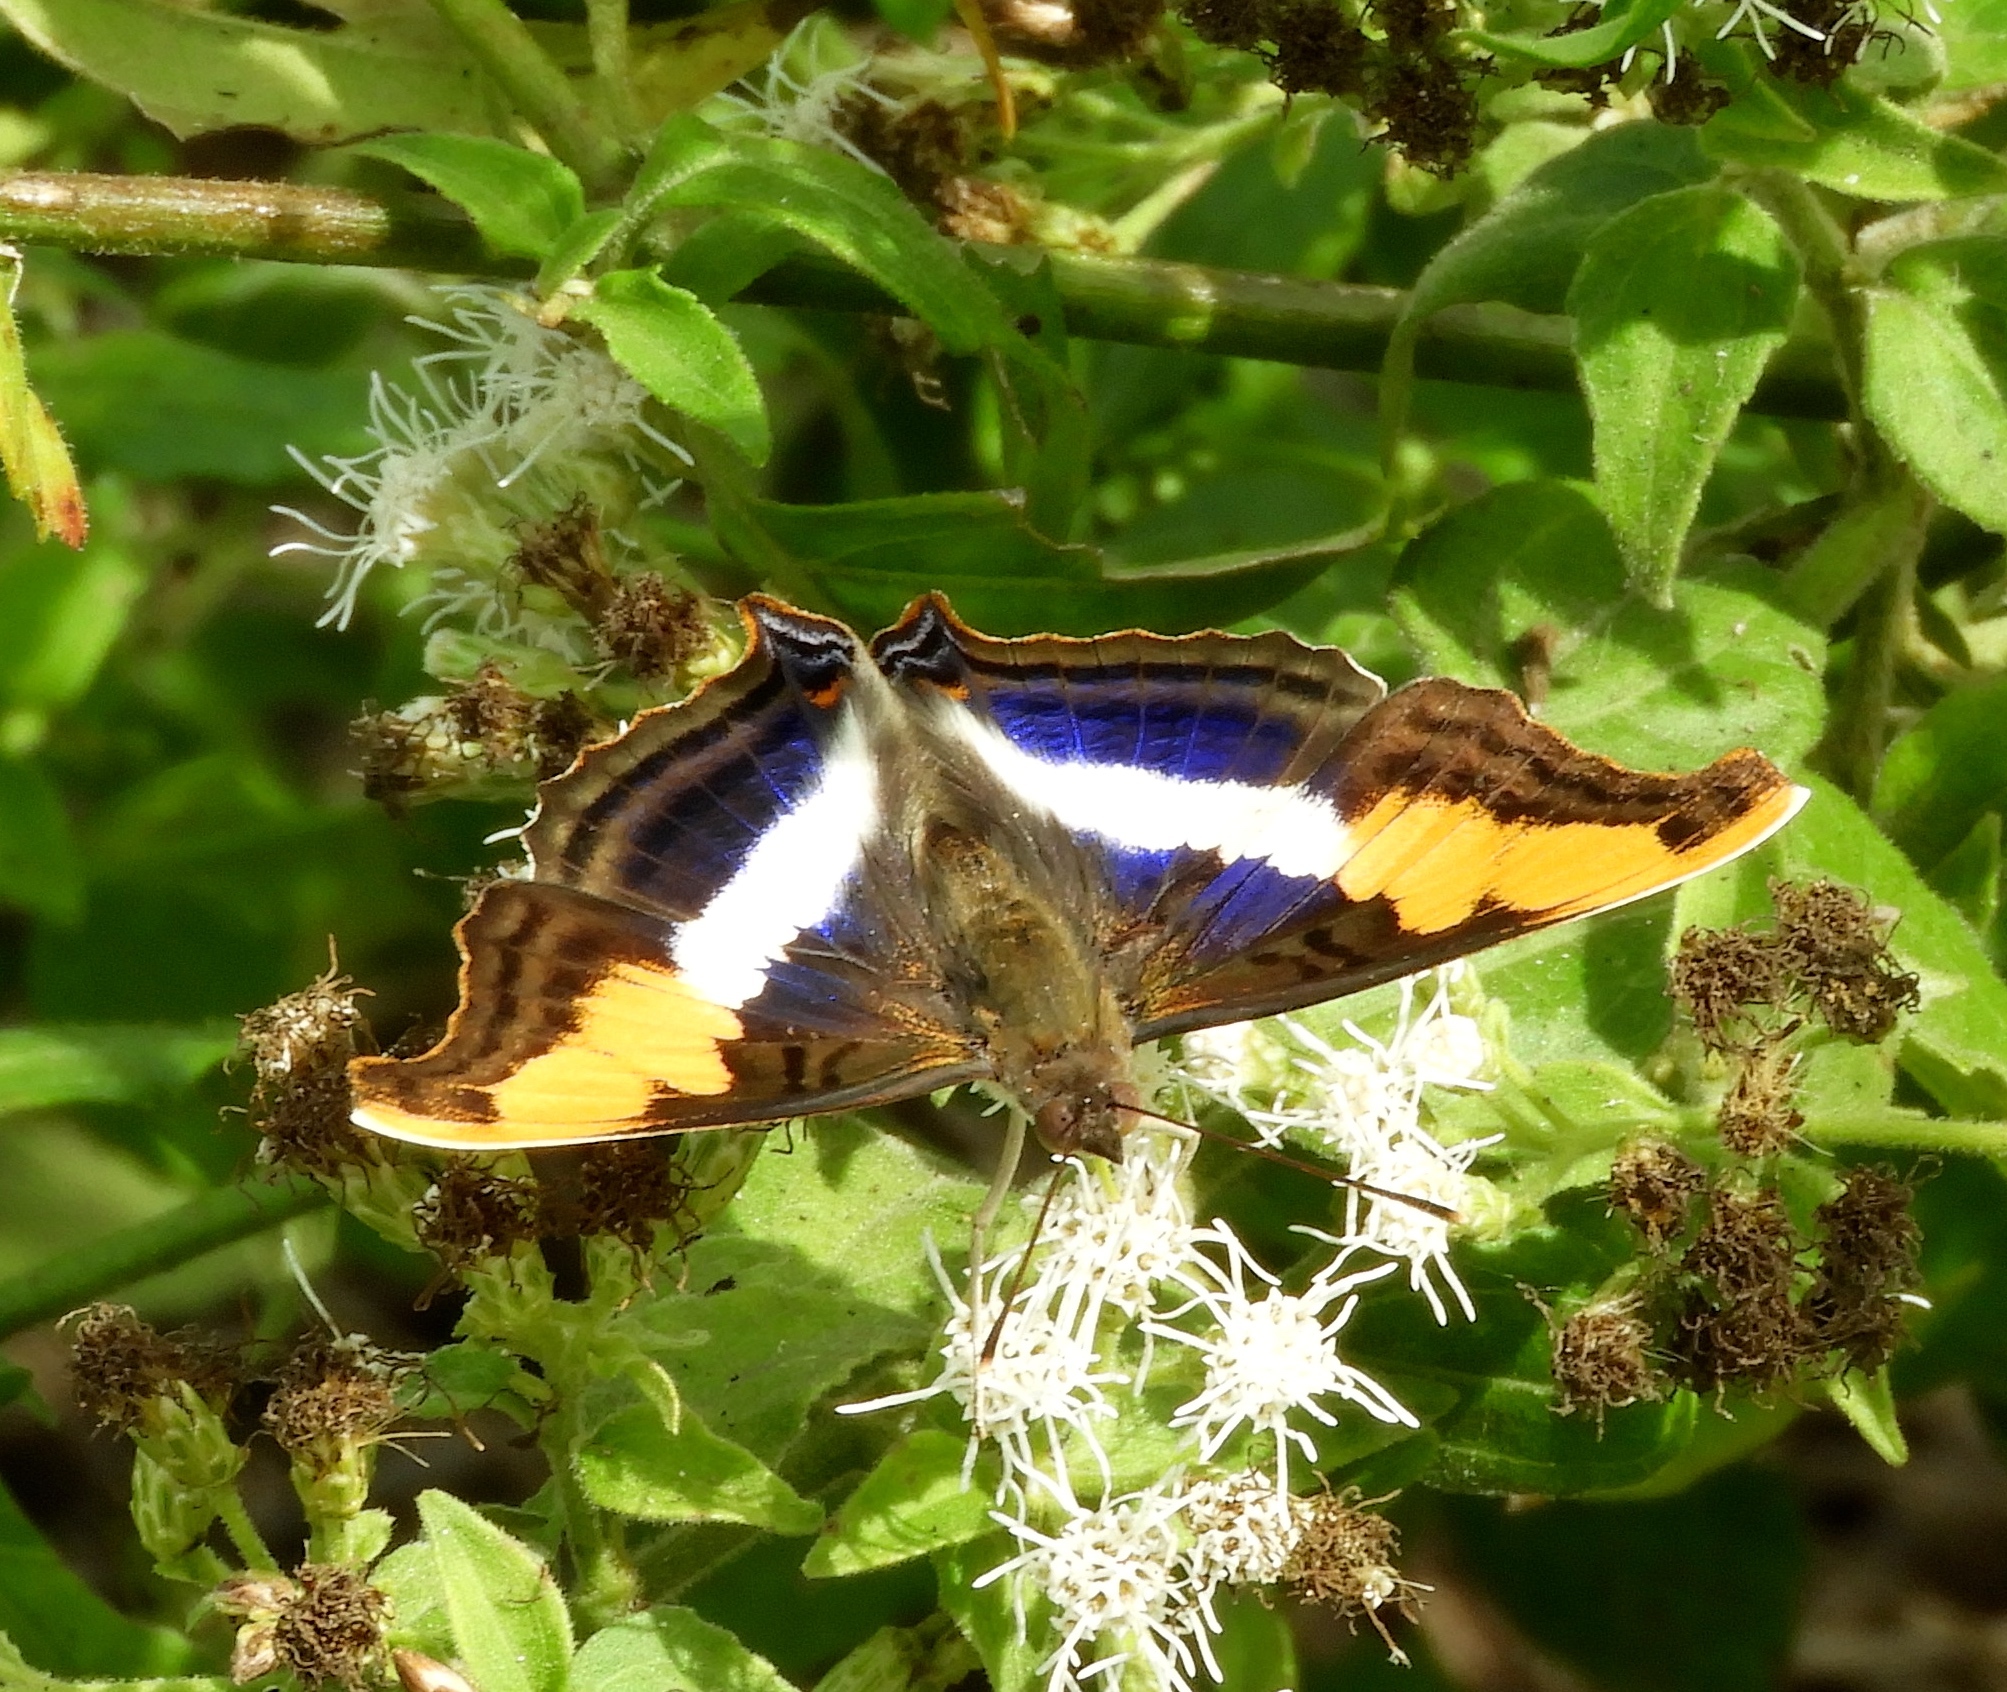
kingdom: Animalia
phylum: Arthropoda
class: Insecta
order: Lepidoptera
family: Nymphalidae
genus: Doxocopa
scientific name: Doxocopa laure
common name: Silver emperor
